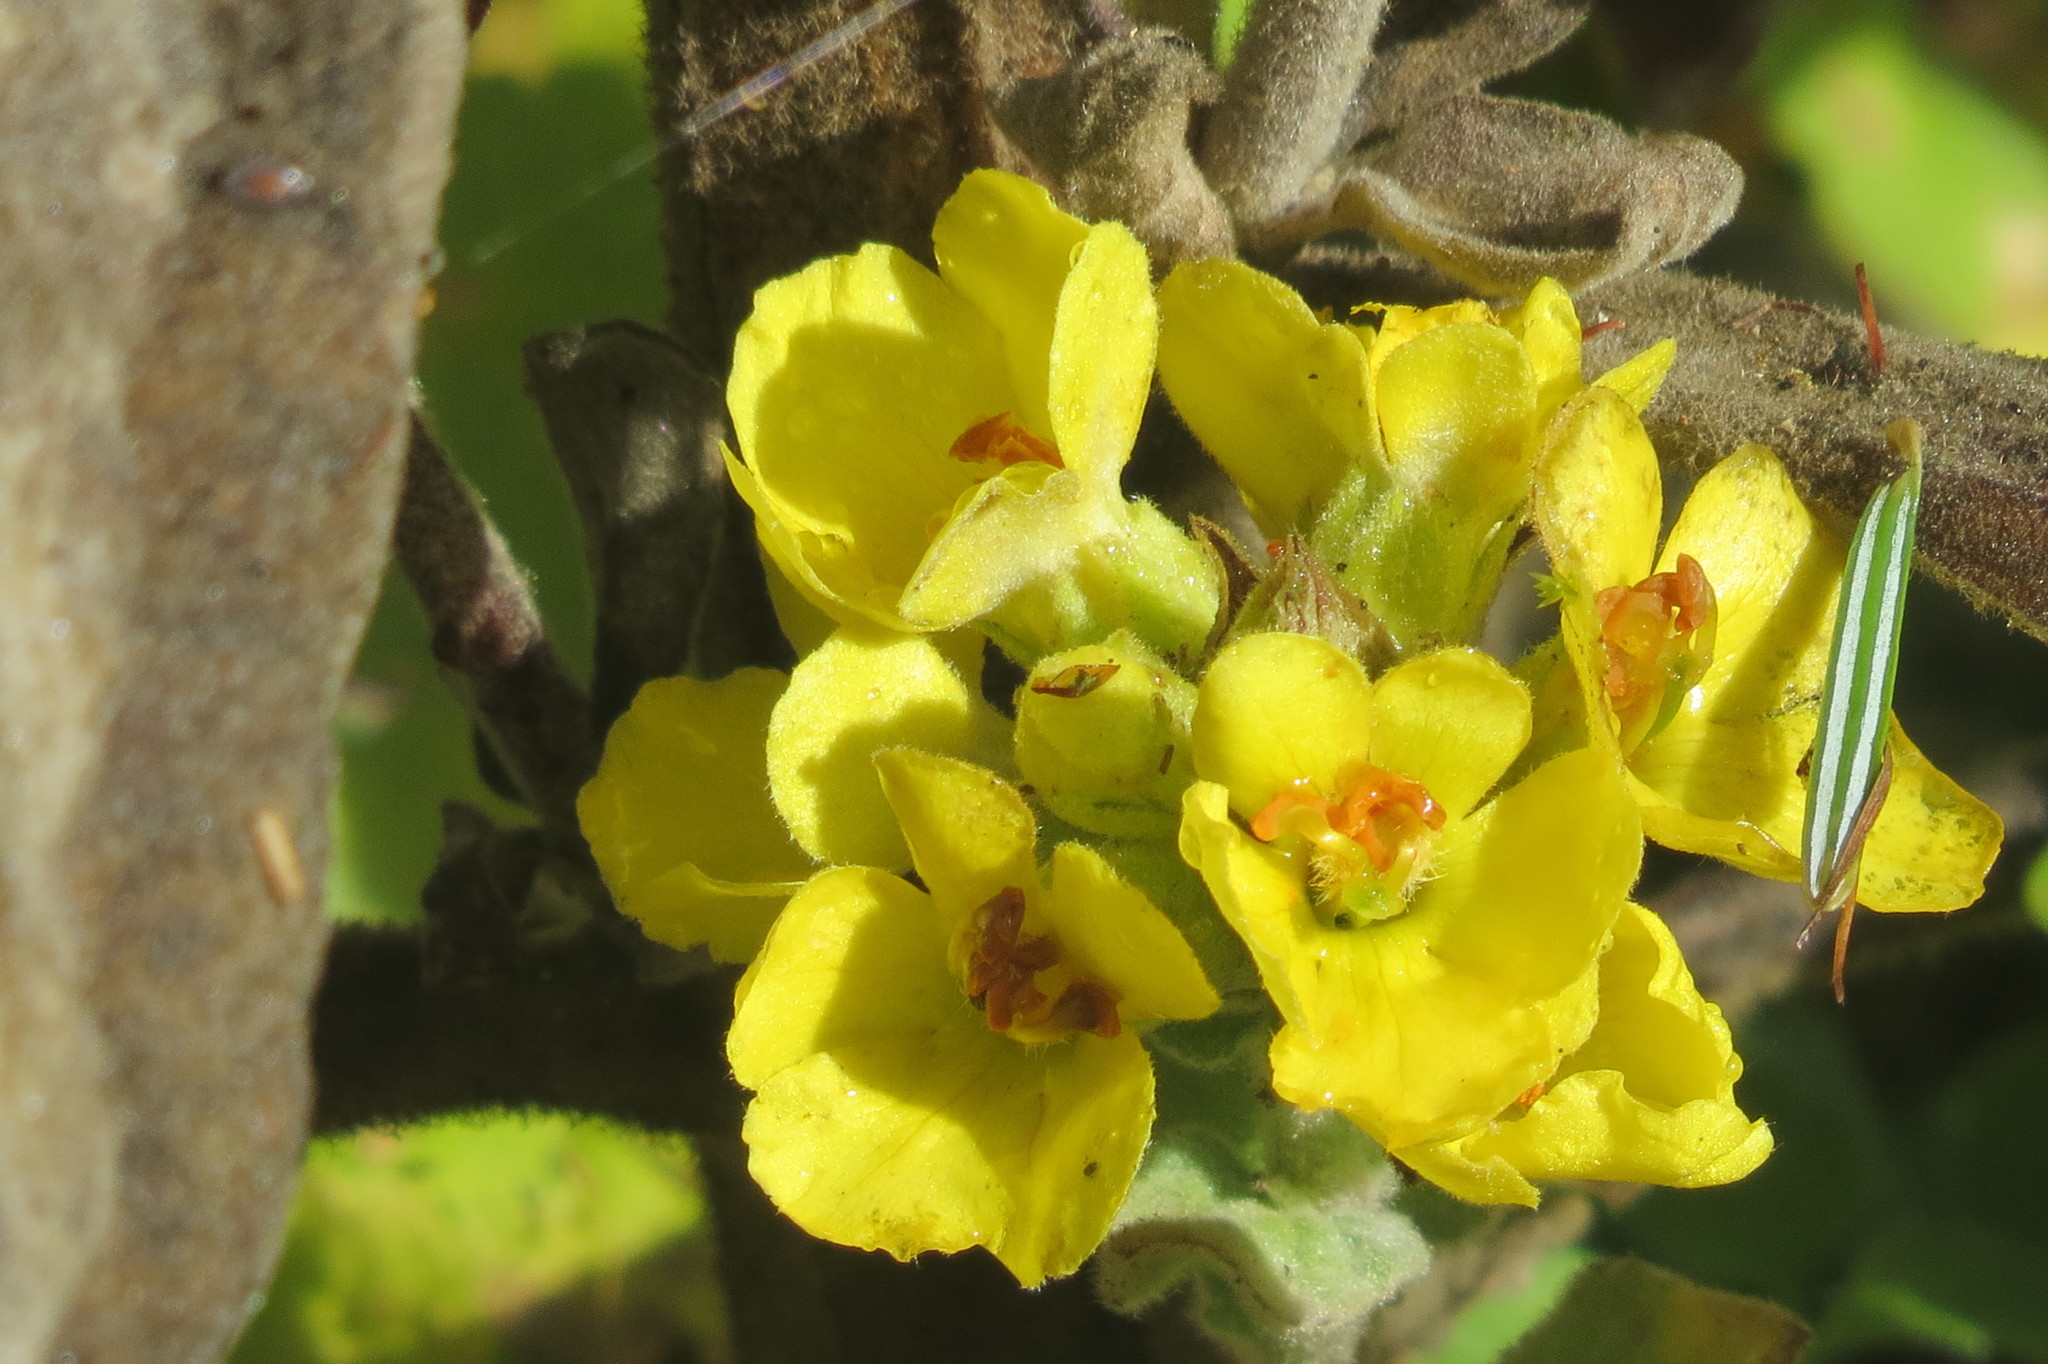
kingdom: Plantae
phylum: Tracheophyta
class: Magnoliopsida
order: Lamiales
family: Scrophulariaceae
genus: Verbascum
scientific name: Verbascum thapsus
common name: Common mullein
